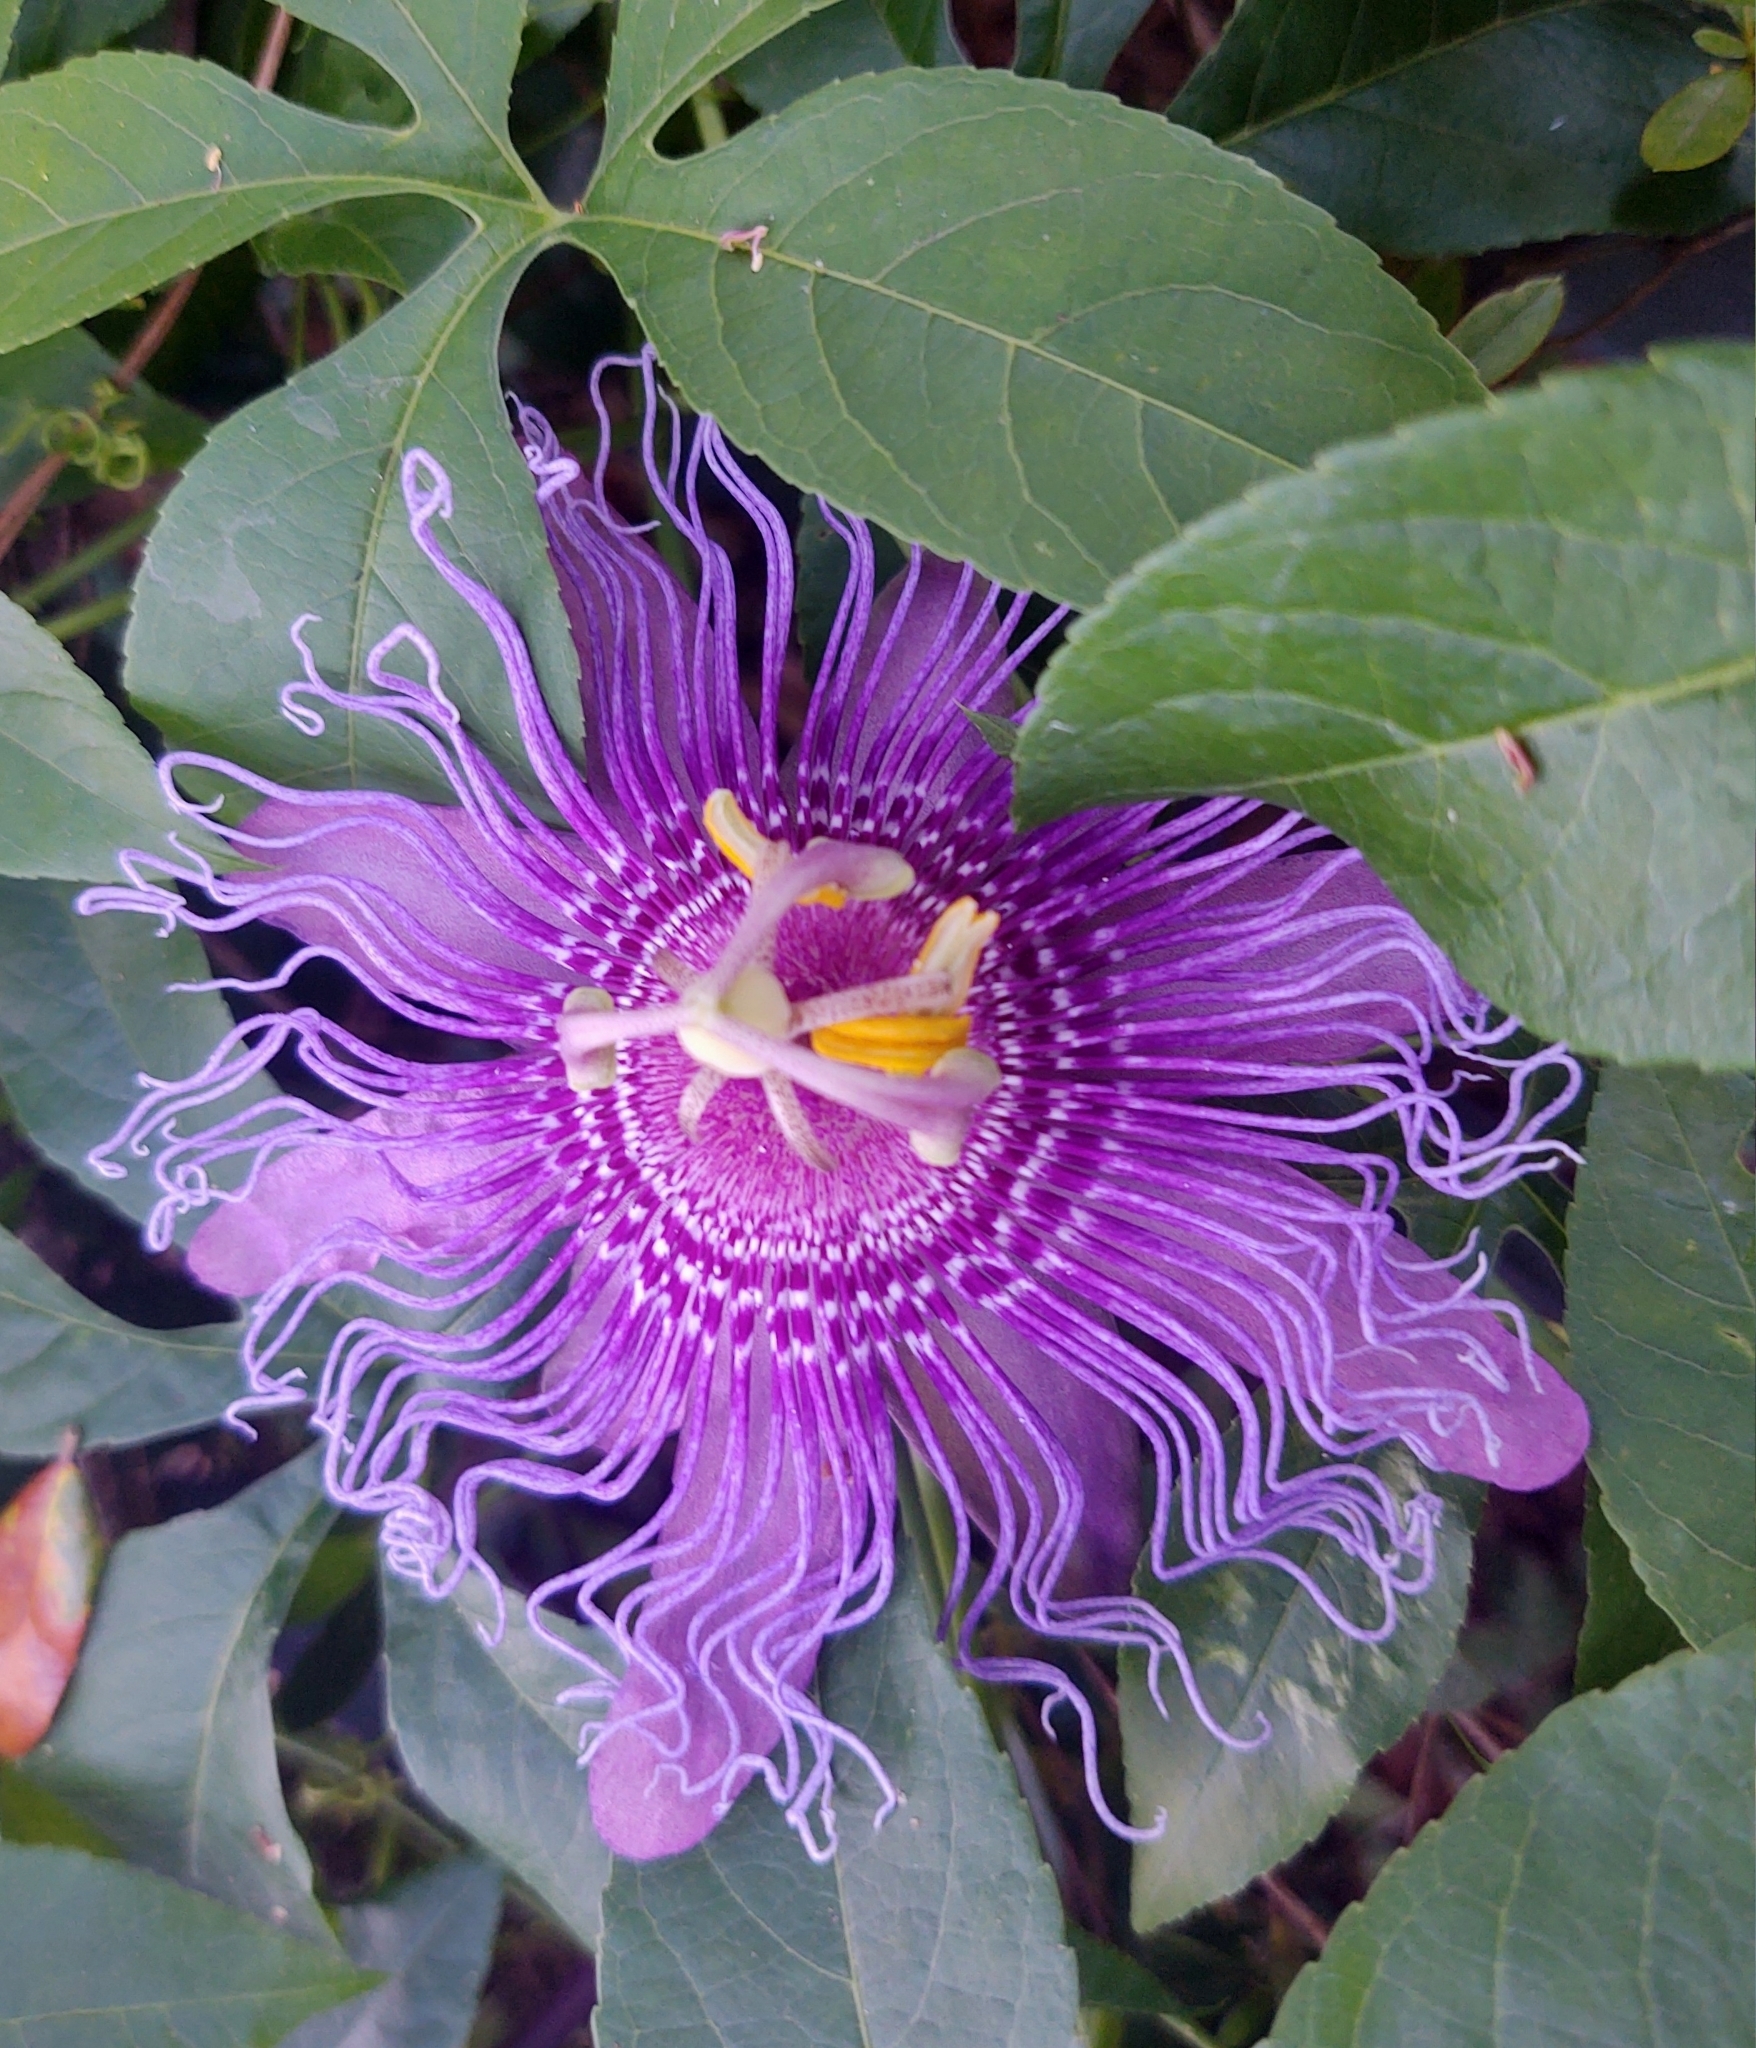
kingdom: Plantae
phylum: Tracheophyta
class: Magnoliopsida
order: Malpighiales
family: Passifloraceae
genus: Passiflora
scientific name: Passiflora
